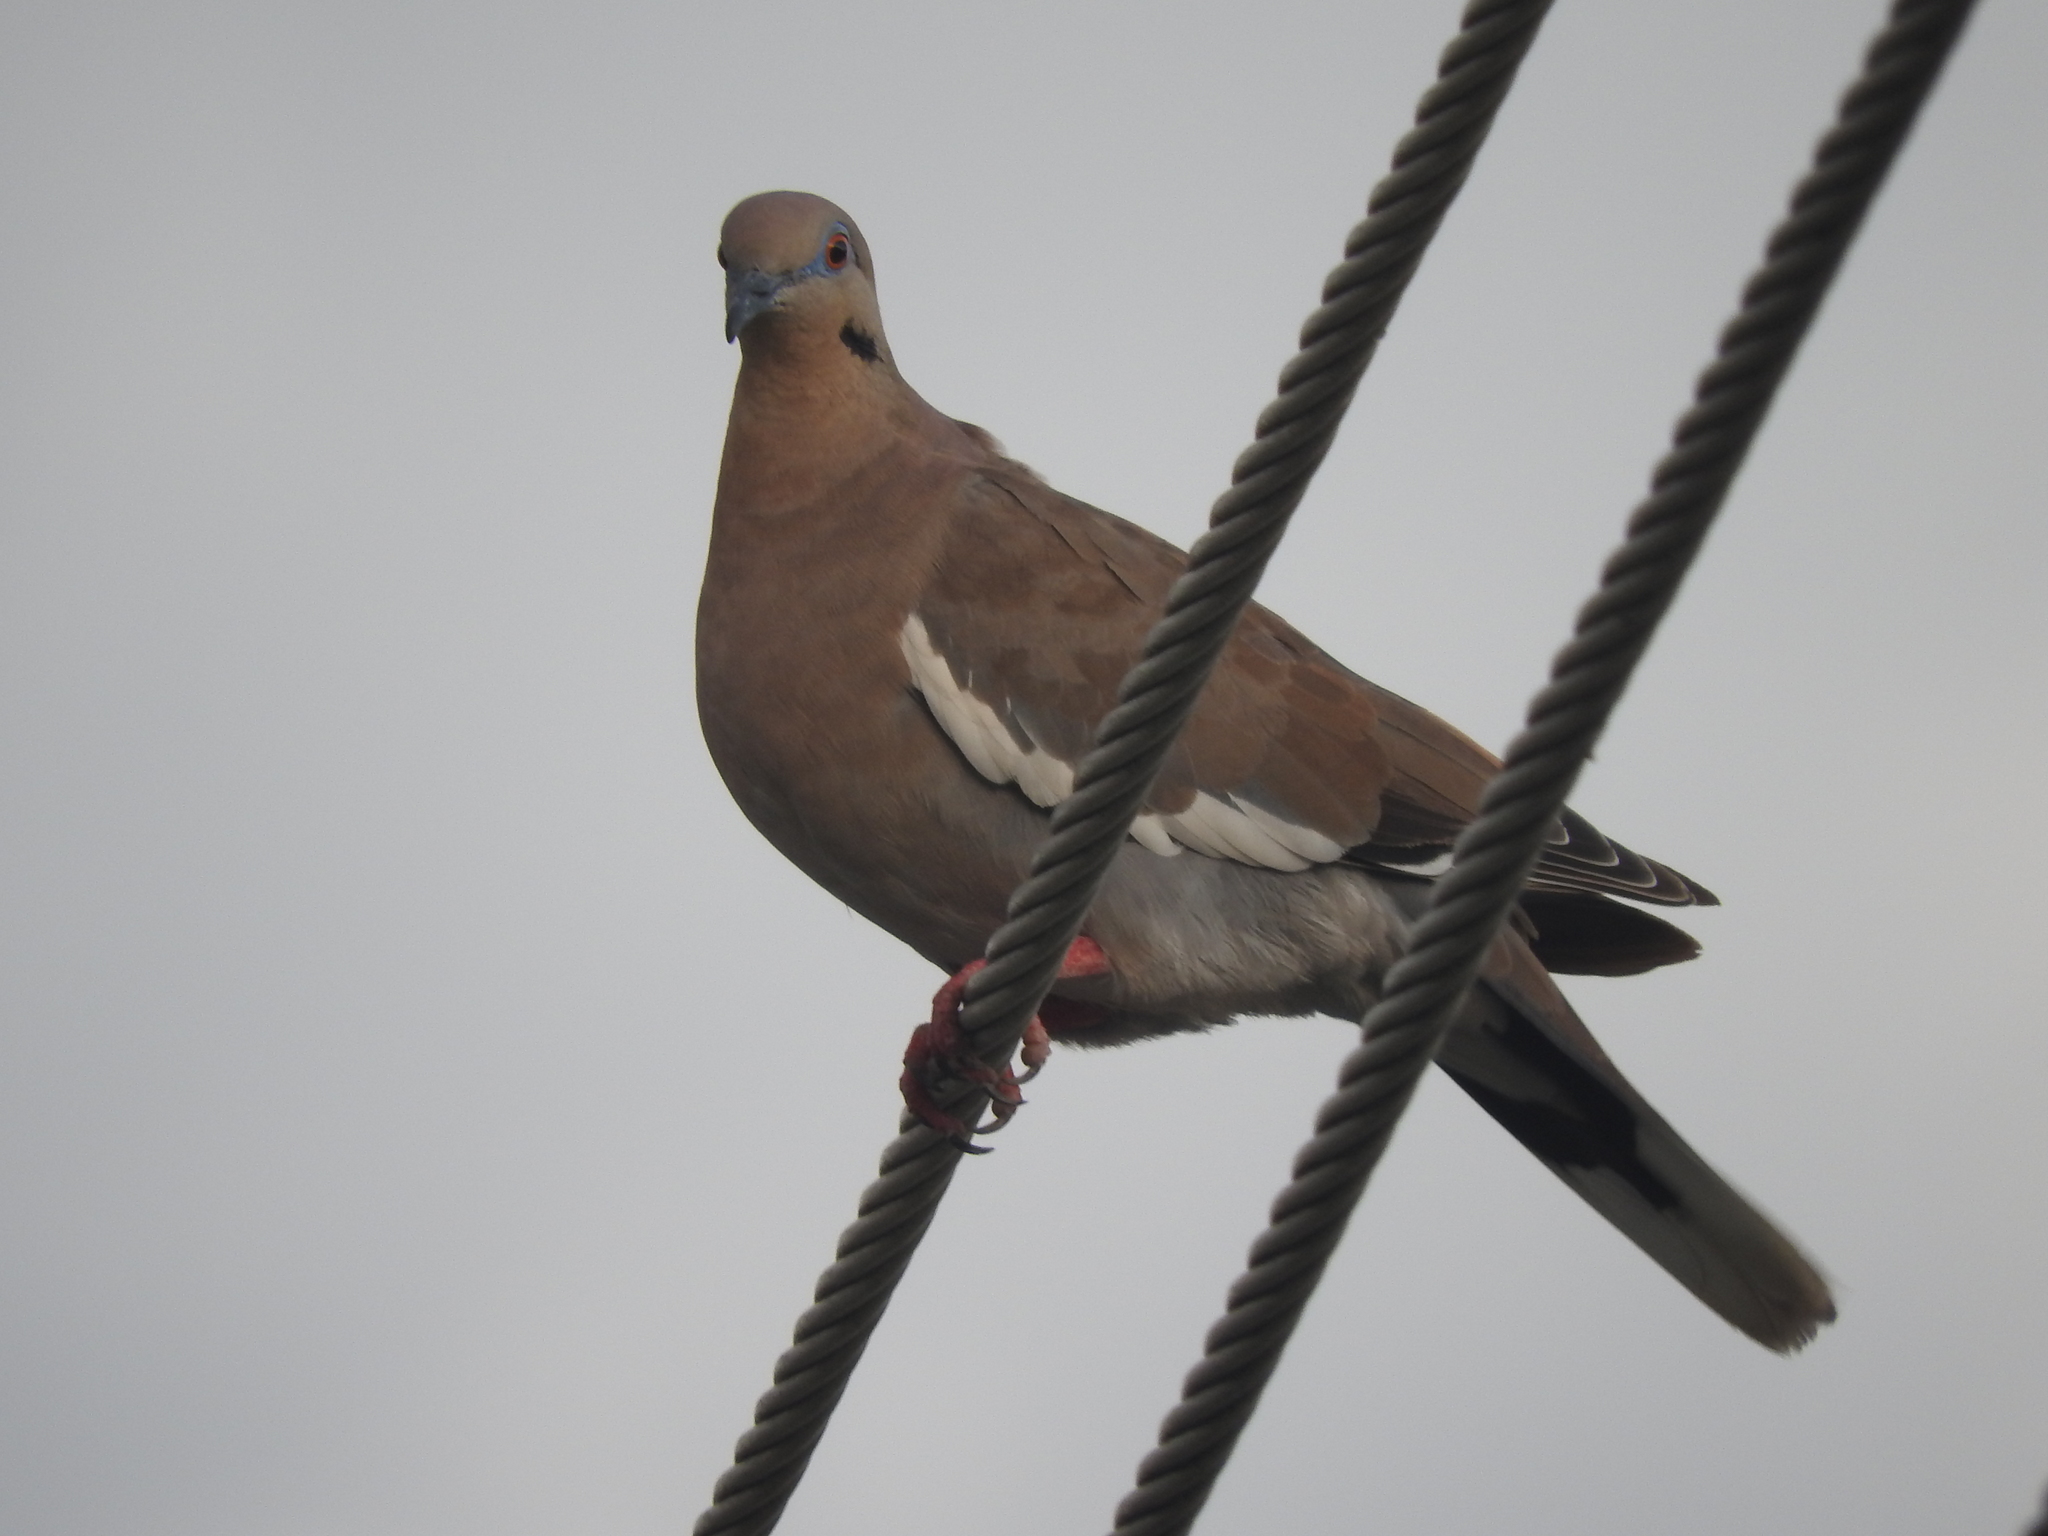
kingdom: Animalia
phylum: Chordata
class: Aves
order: Columbiformes
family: Columbidae
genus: Zenaida
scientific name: Zenaida asiatica
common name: White-winged dove
